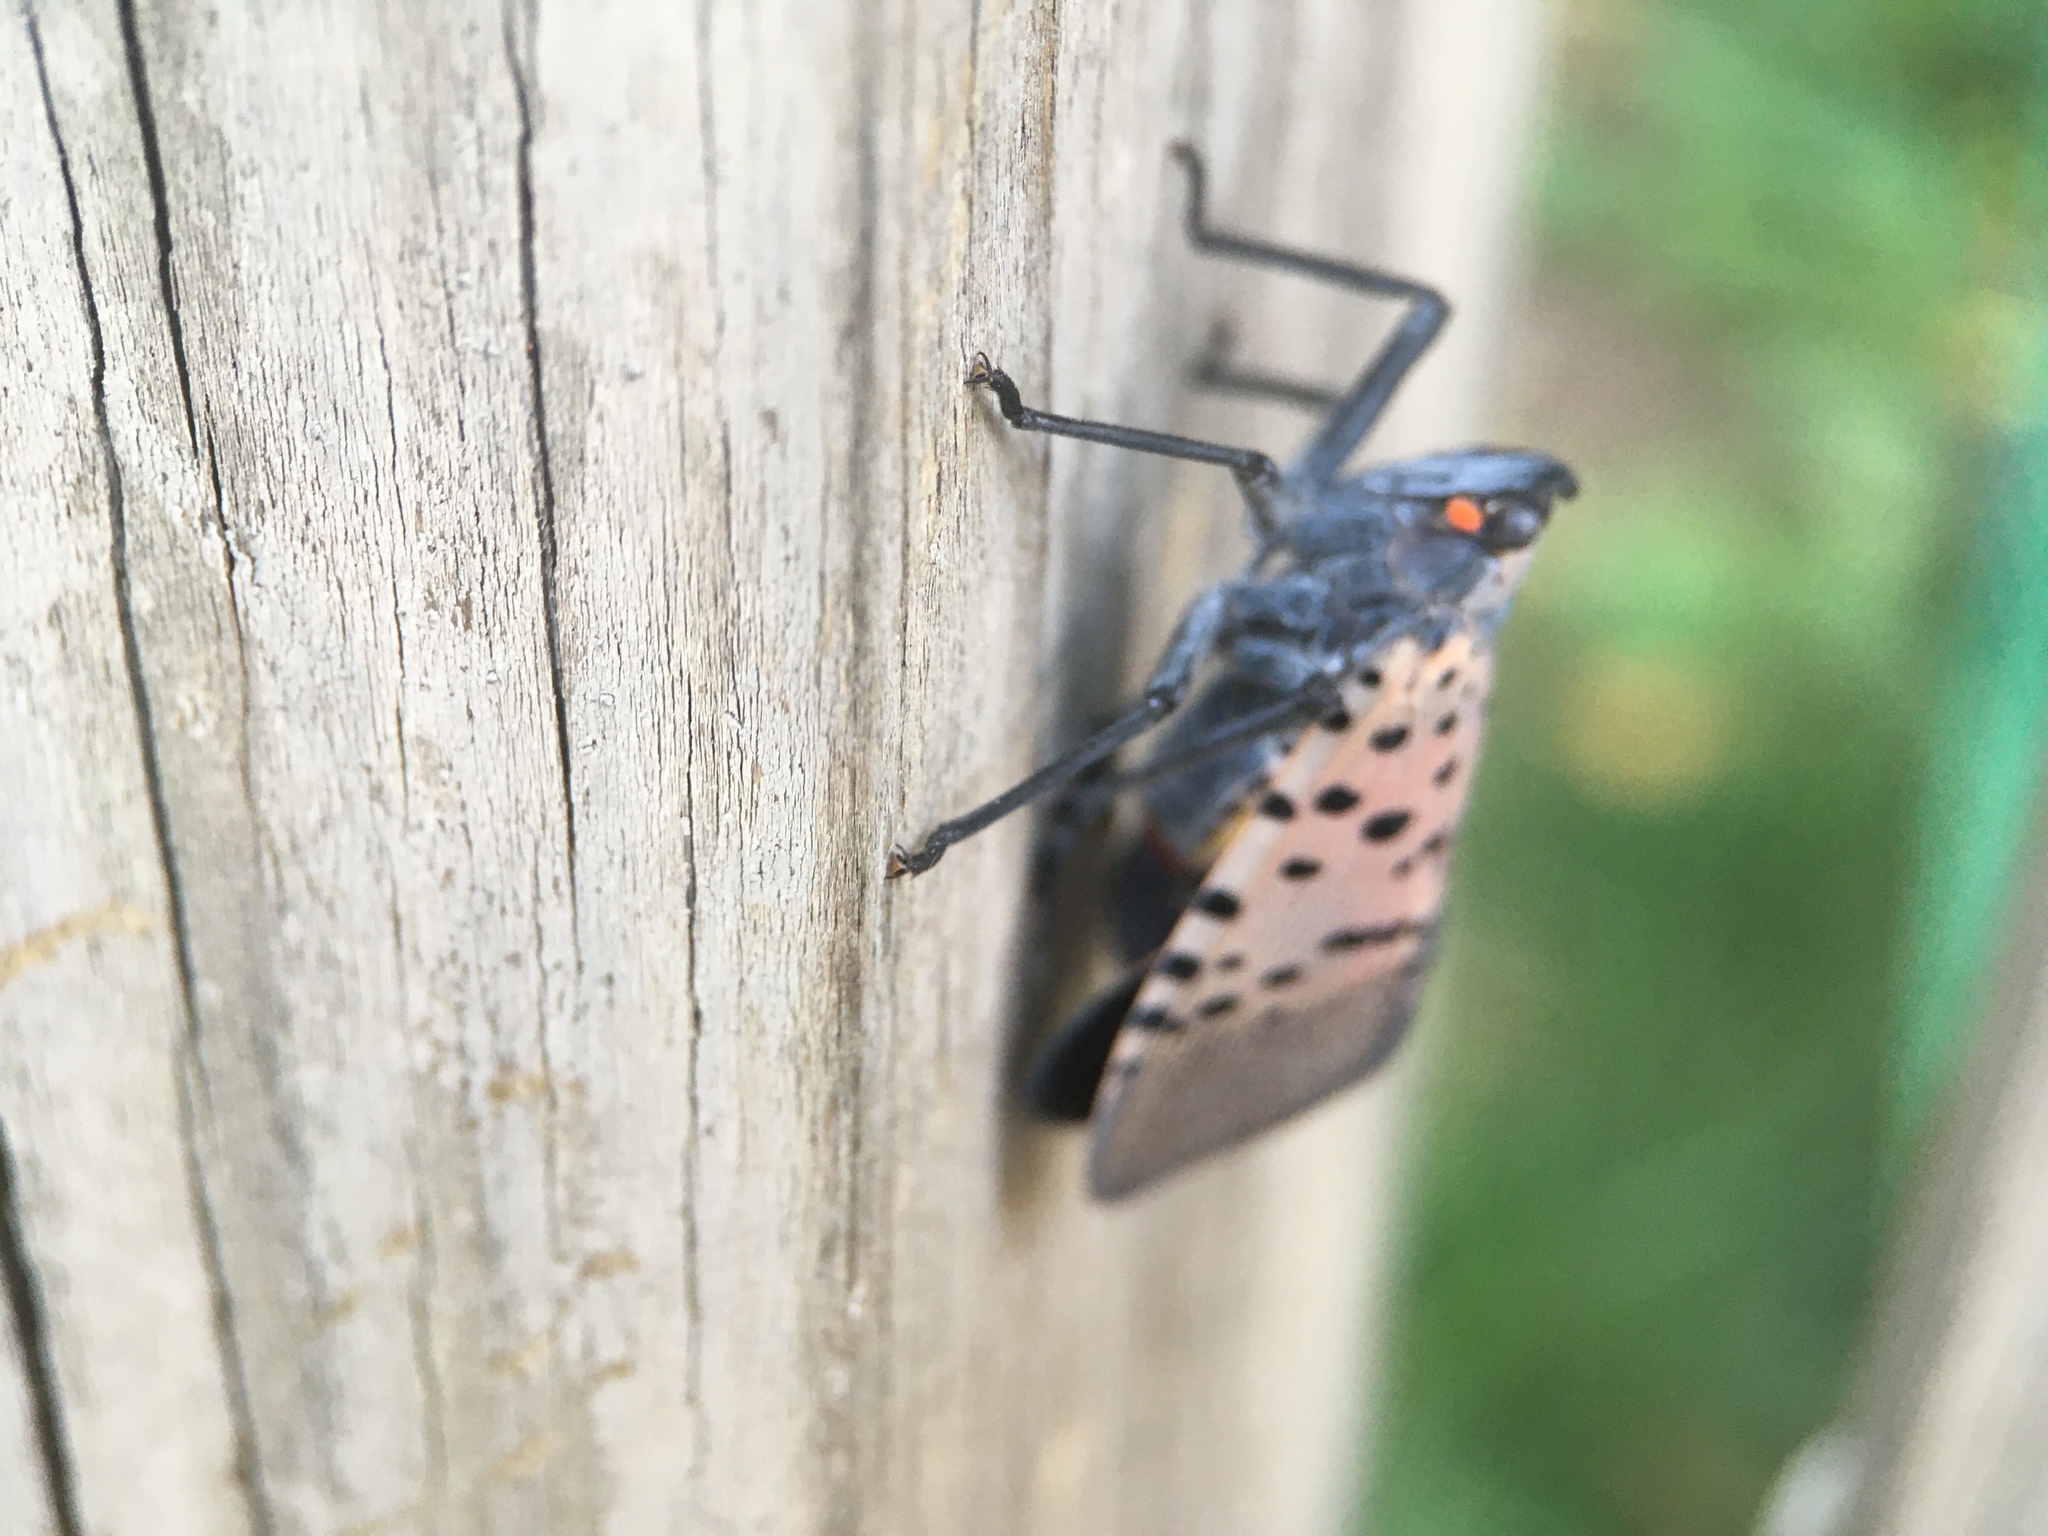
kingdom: Animalia
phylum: Arthropoda
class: Insecta
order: Hemiptera
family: Fulgoridae
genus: Lycorma
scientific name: Lycorma delicatula
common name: Spotted lanternfly
